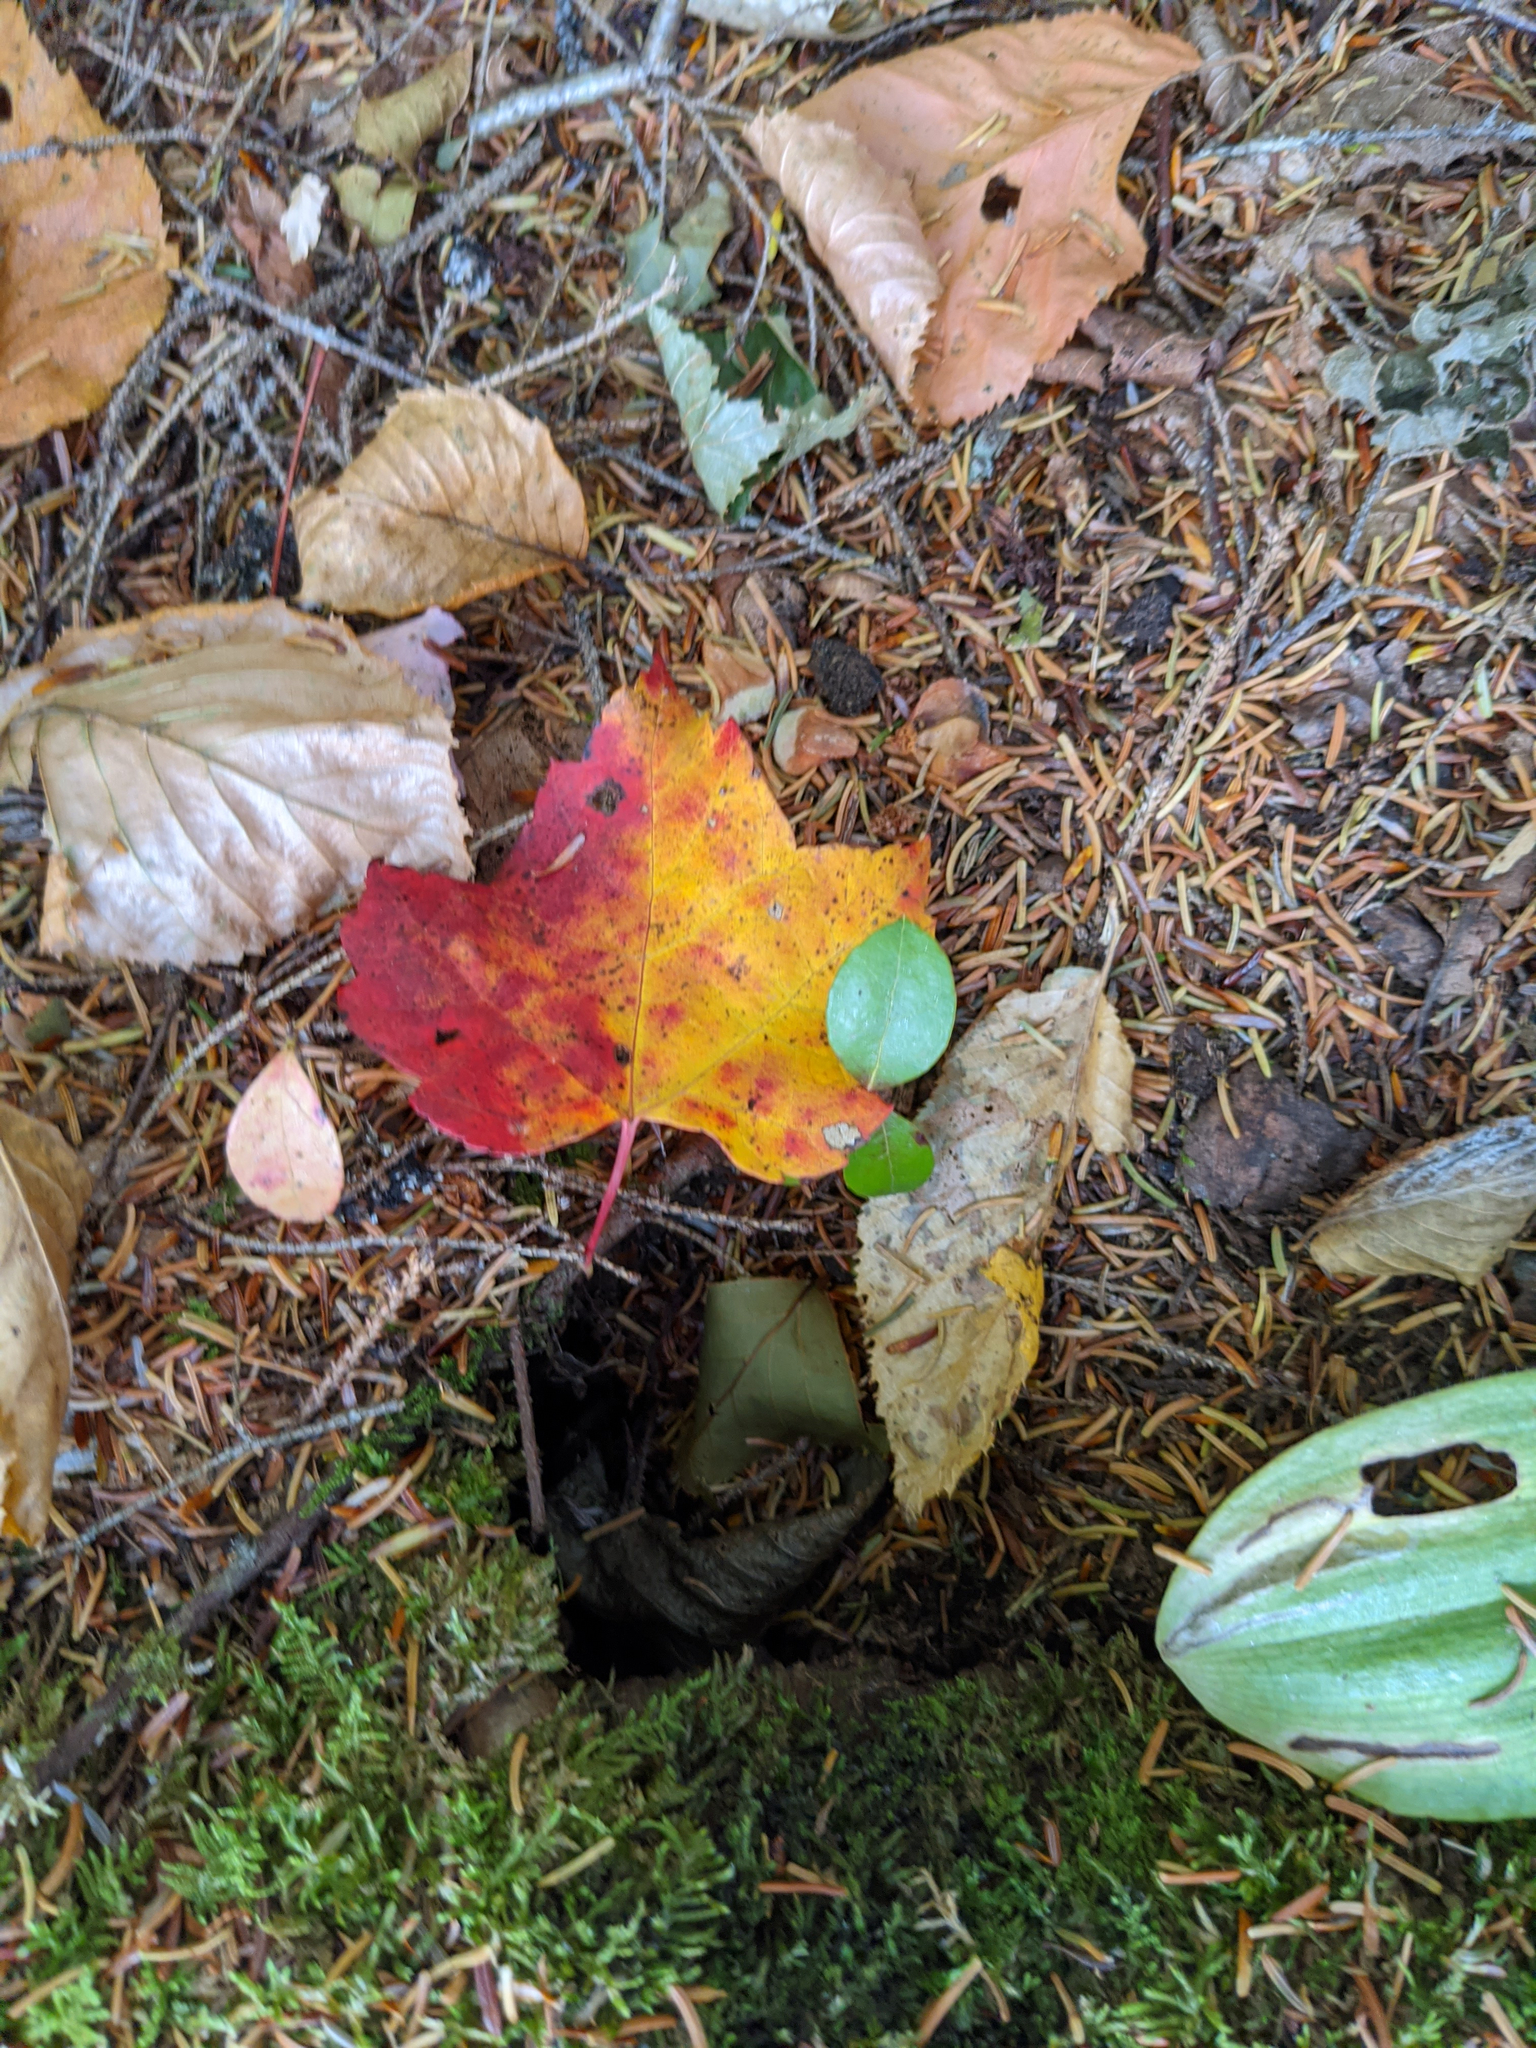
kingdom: Plantae
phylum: Tracheophyta
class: Magnoliopsida
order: Sapindales
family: Sapindaceae
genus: Acer
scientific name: Acer rubrum
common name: Red maple
